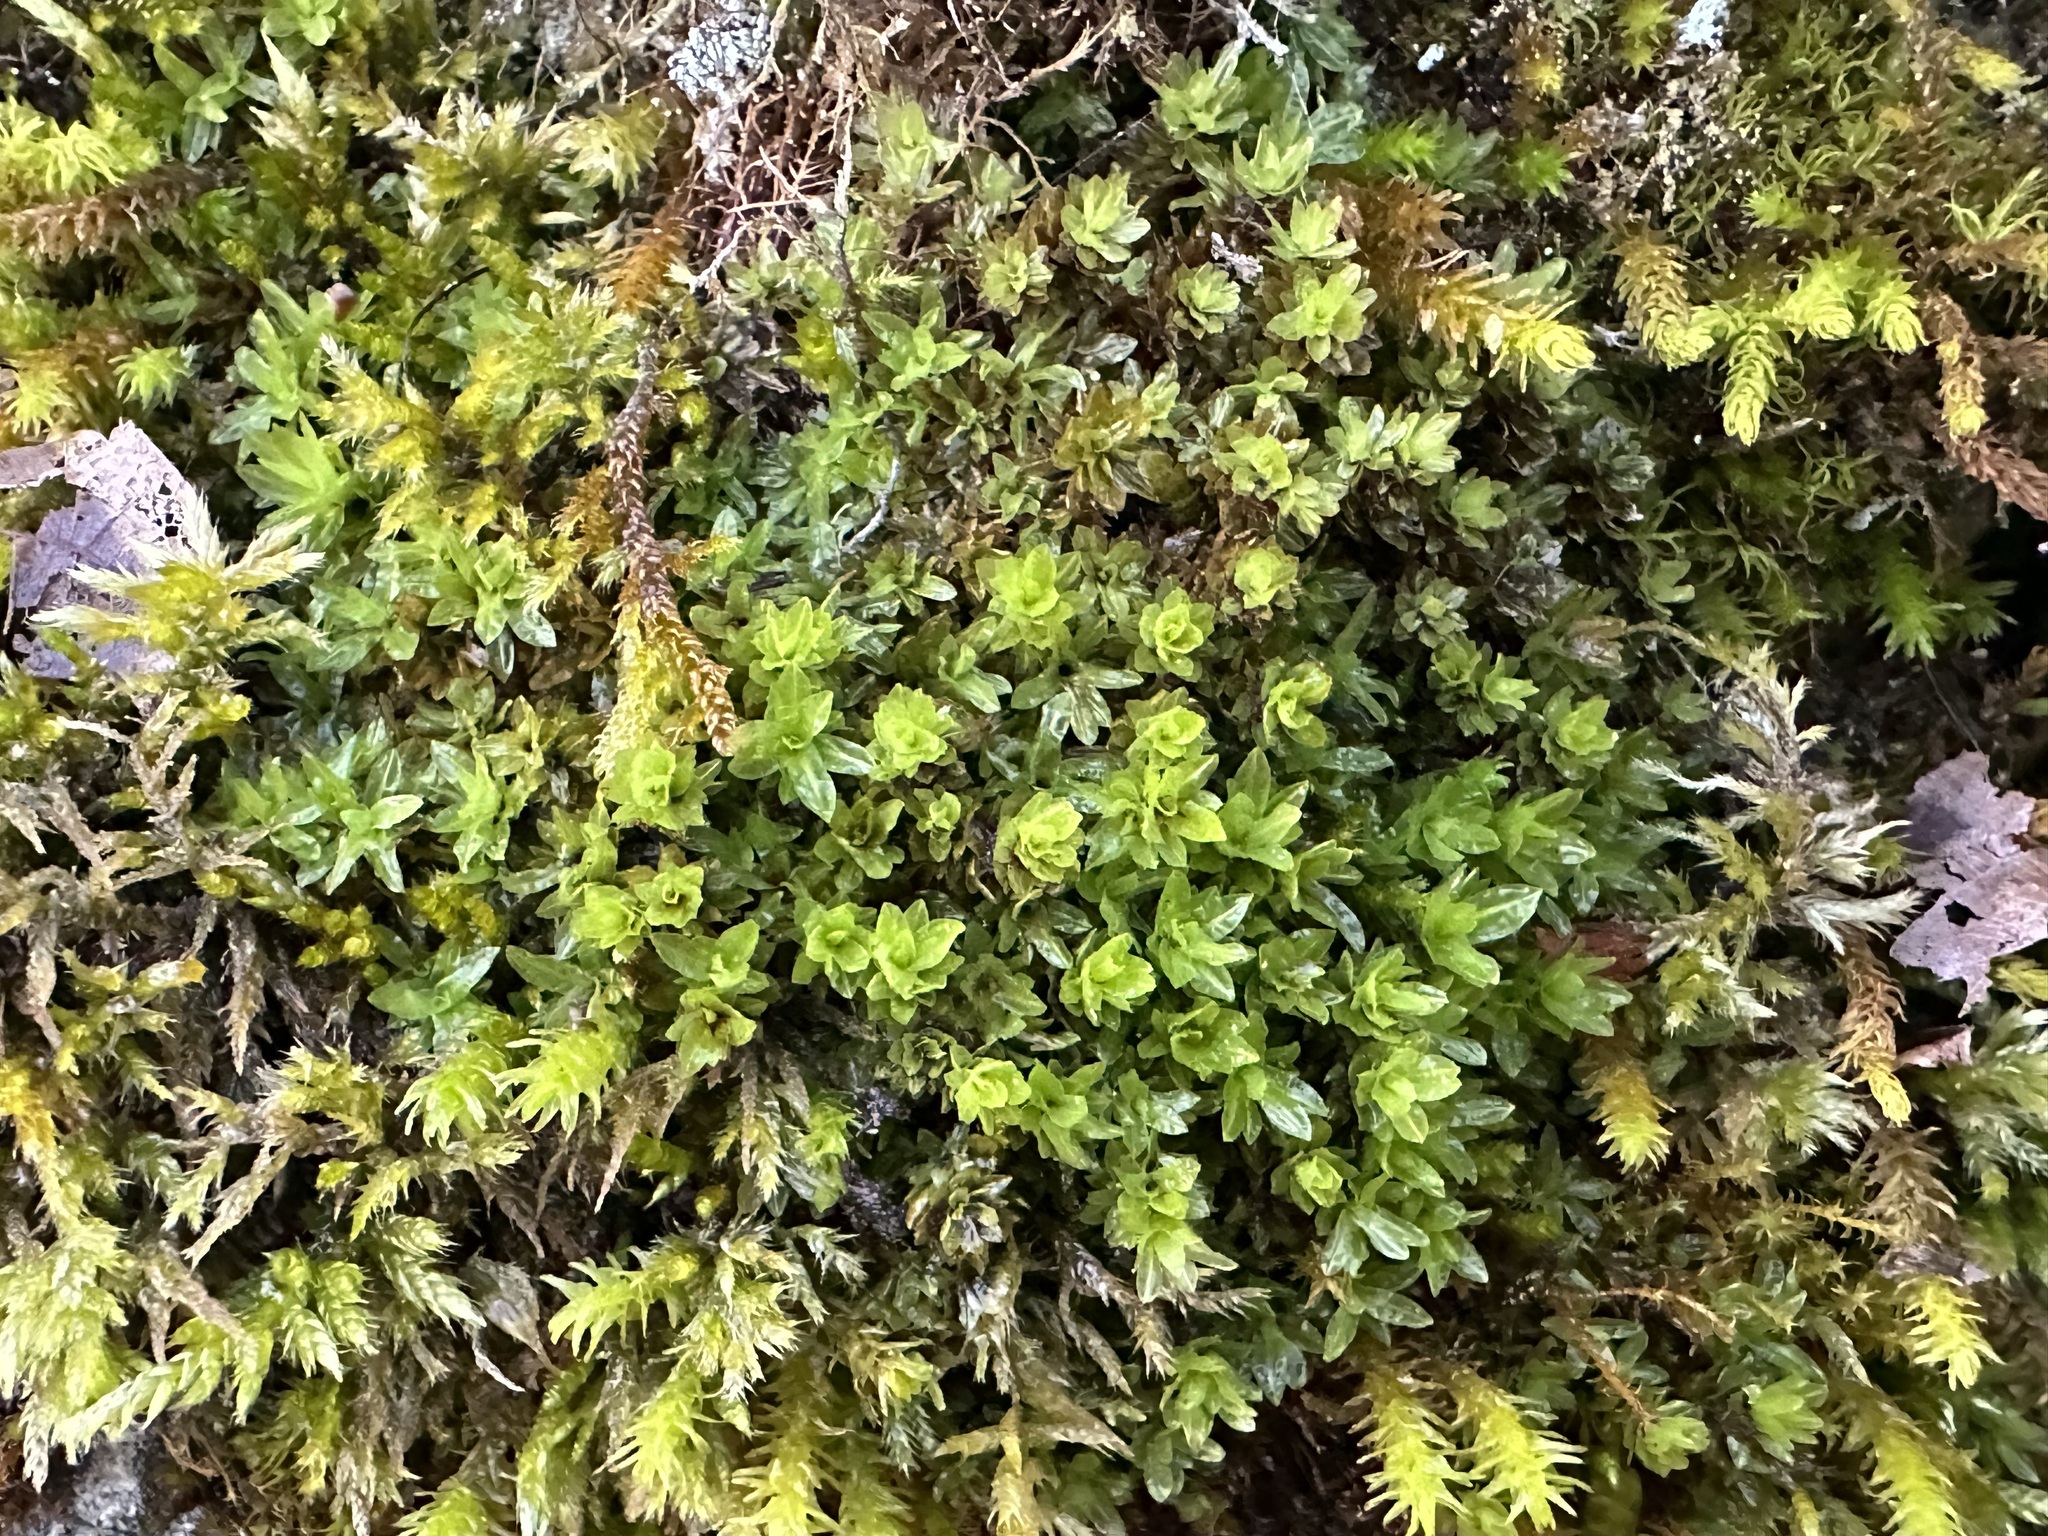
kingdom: Plantae
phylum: Bryophyta
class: Bryopsida
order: Encalyptales
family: Encalyptaceae
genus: Encalypta
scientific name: Encalypta streptocarpa
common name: Spiral extinguisher-moss
